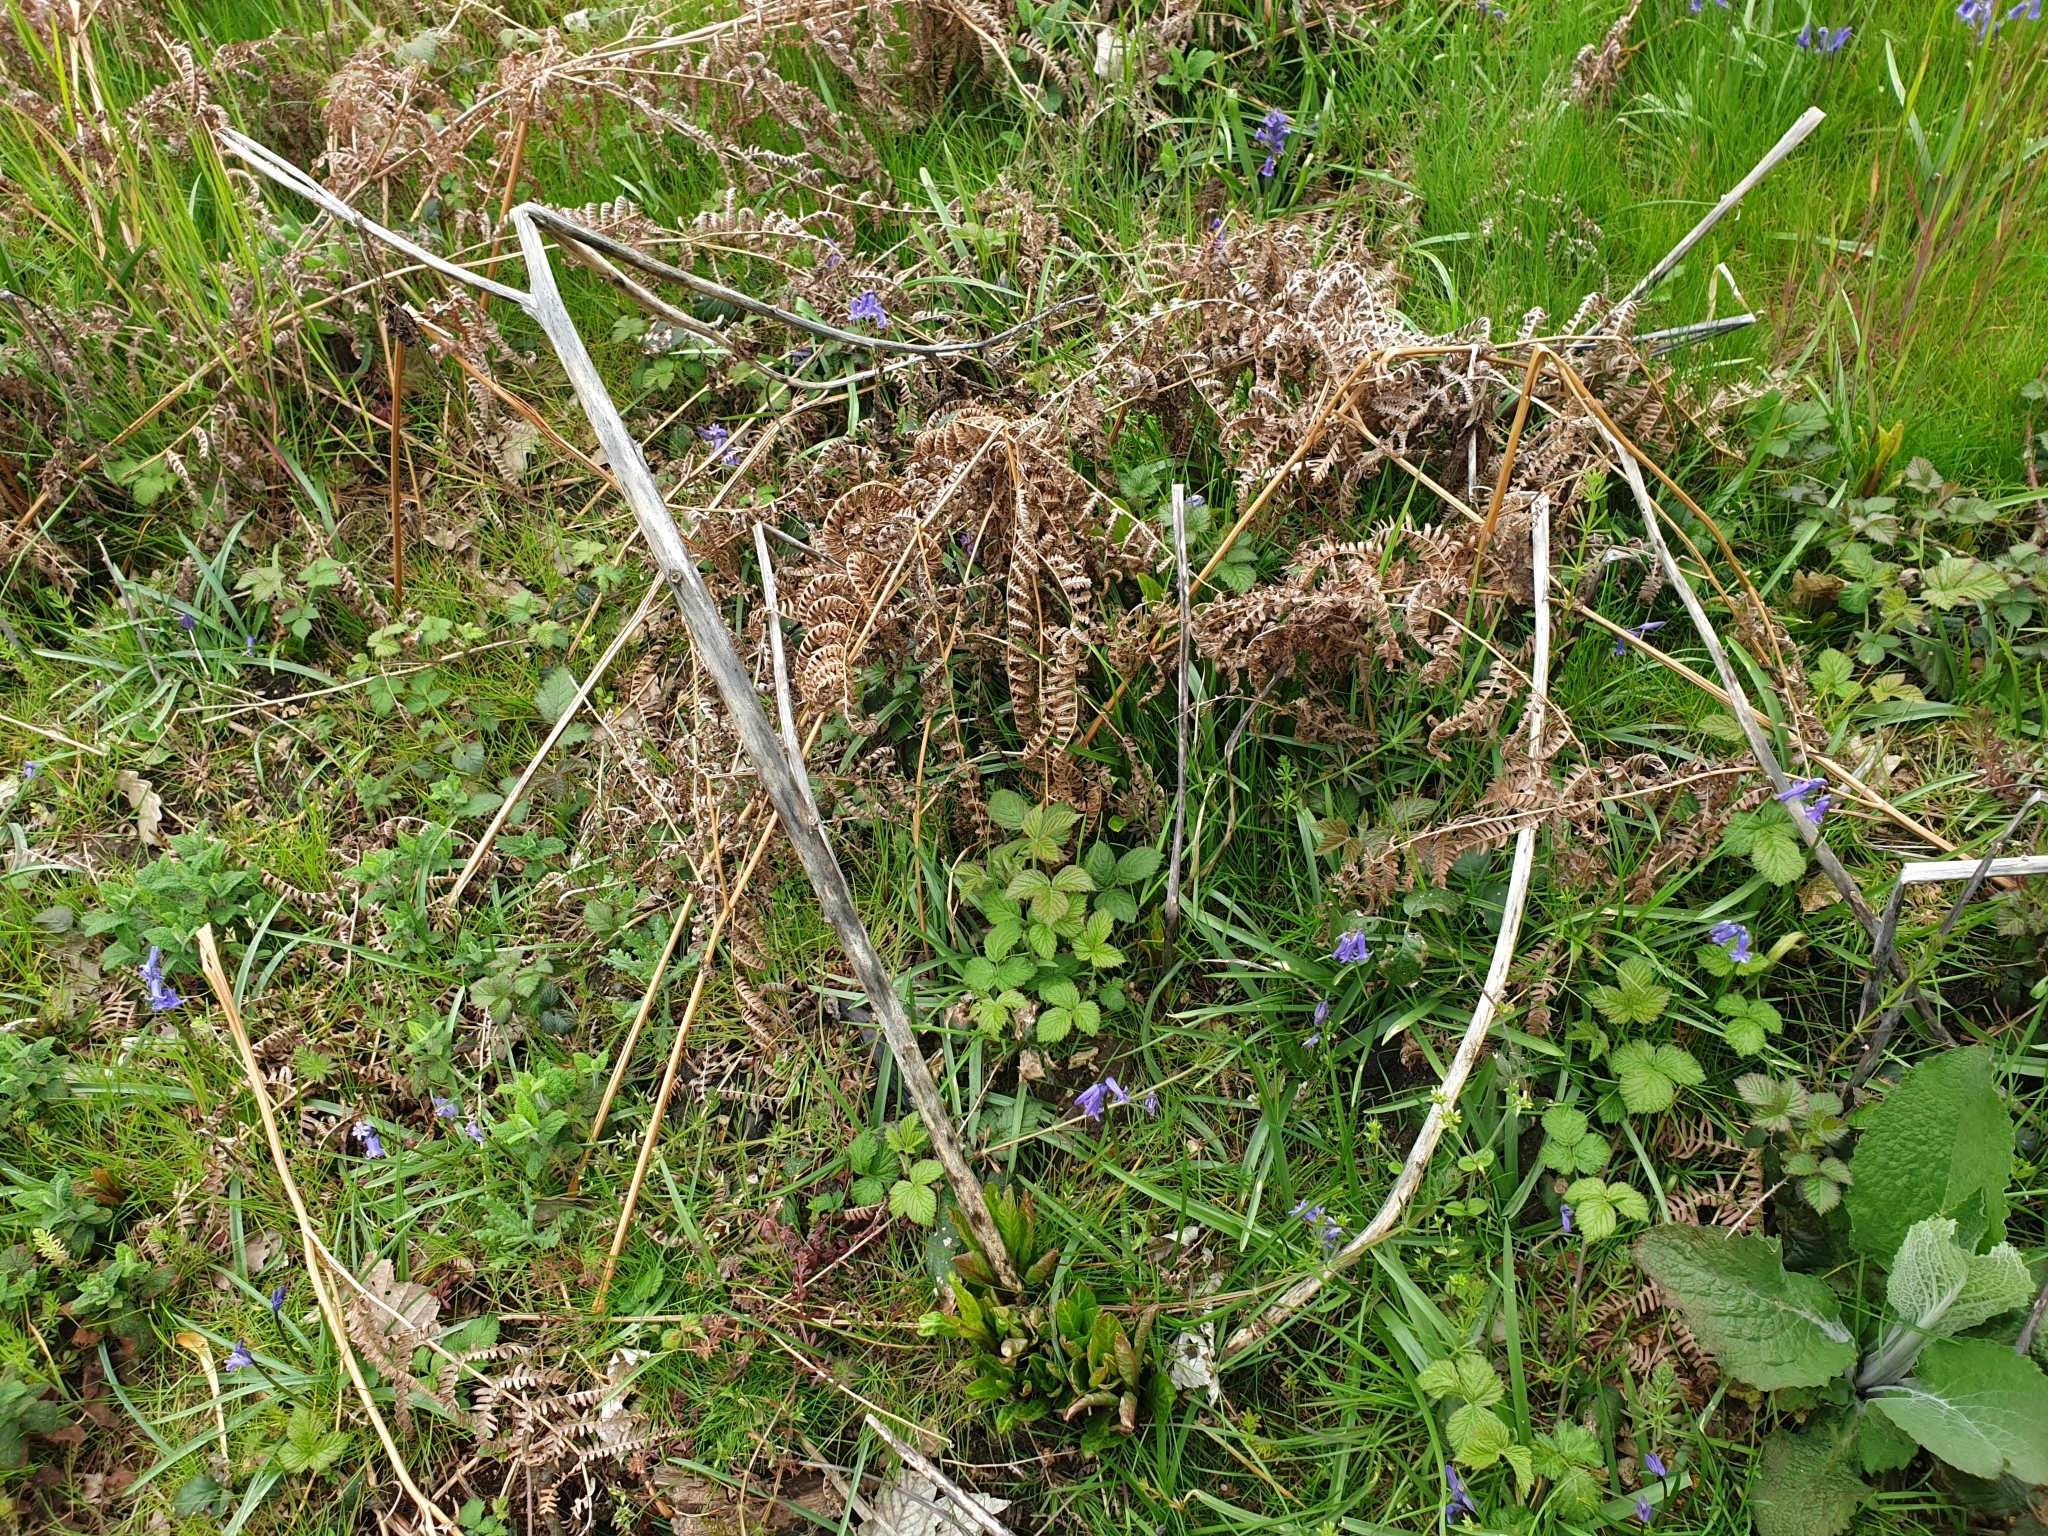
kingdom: Plantae
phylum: Tracheophyta
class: Magnoliopsida
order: Caryophyllales
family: Phytolaccaceae
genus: Phytolacca
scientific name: Phytolacca americana
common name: American pokeweed
